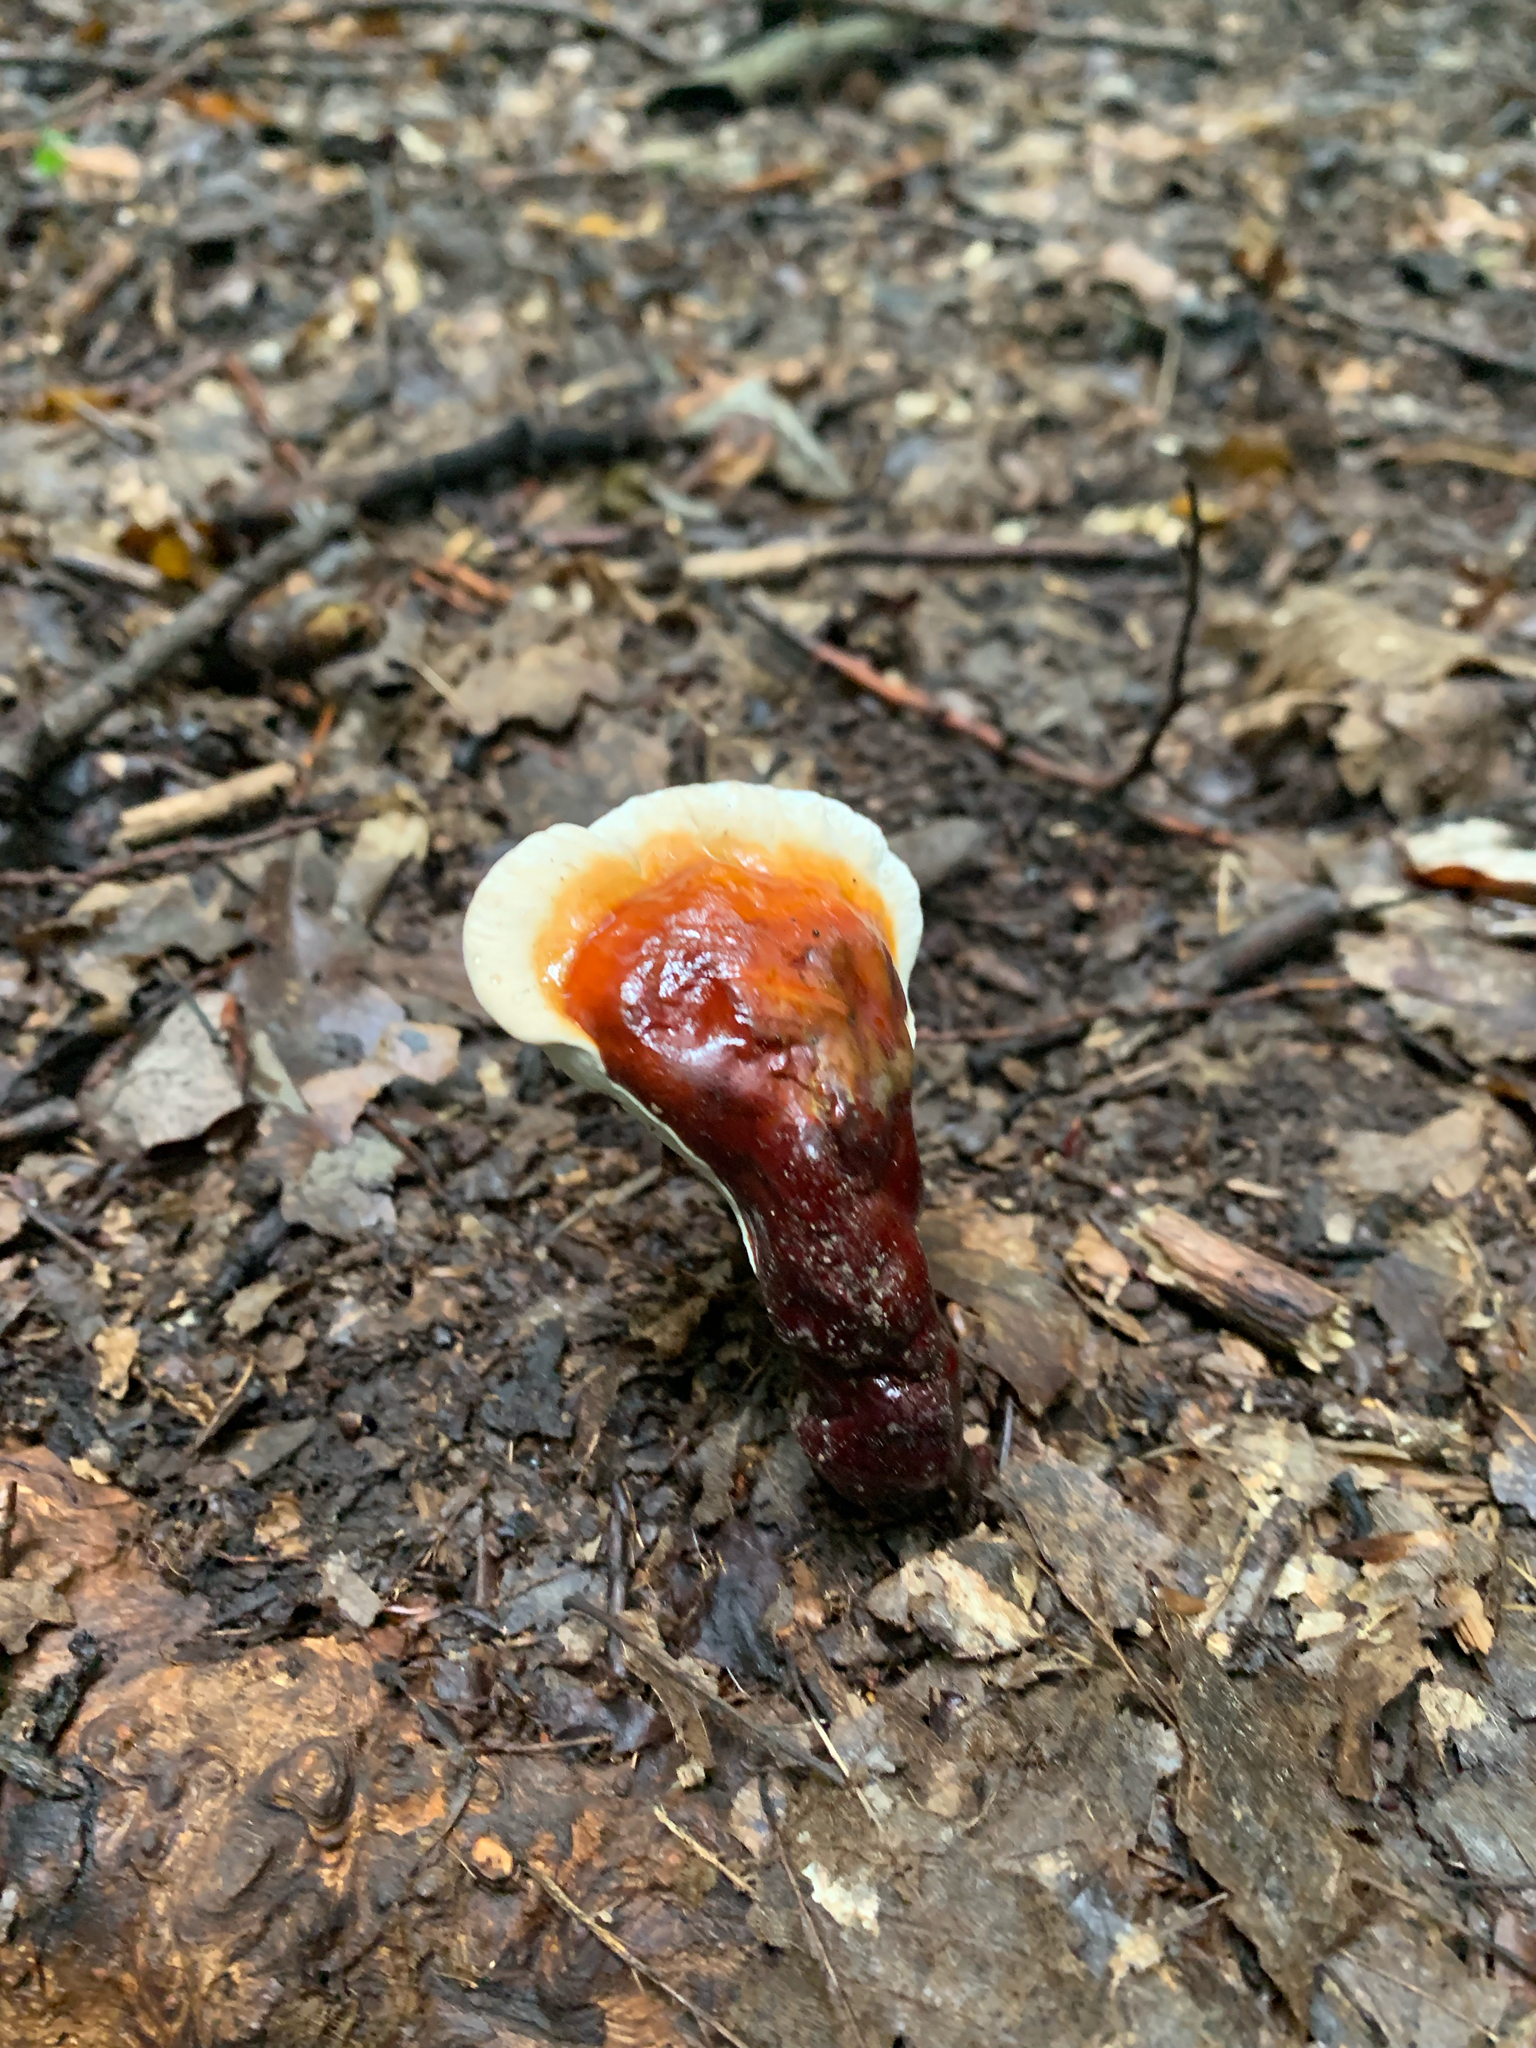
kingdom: Fungi
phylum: Basidiomycota
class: Agaricomycetes
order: Polyporales
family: Polyporaceae
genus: Ganoderma
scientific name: Ganoderma lucidum
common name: Lacquered bracket
